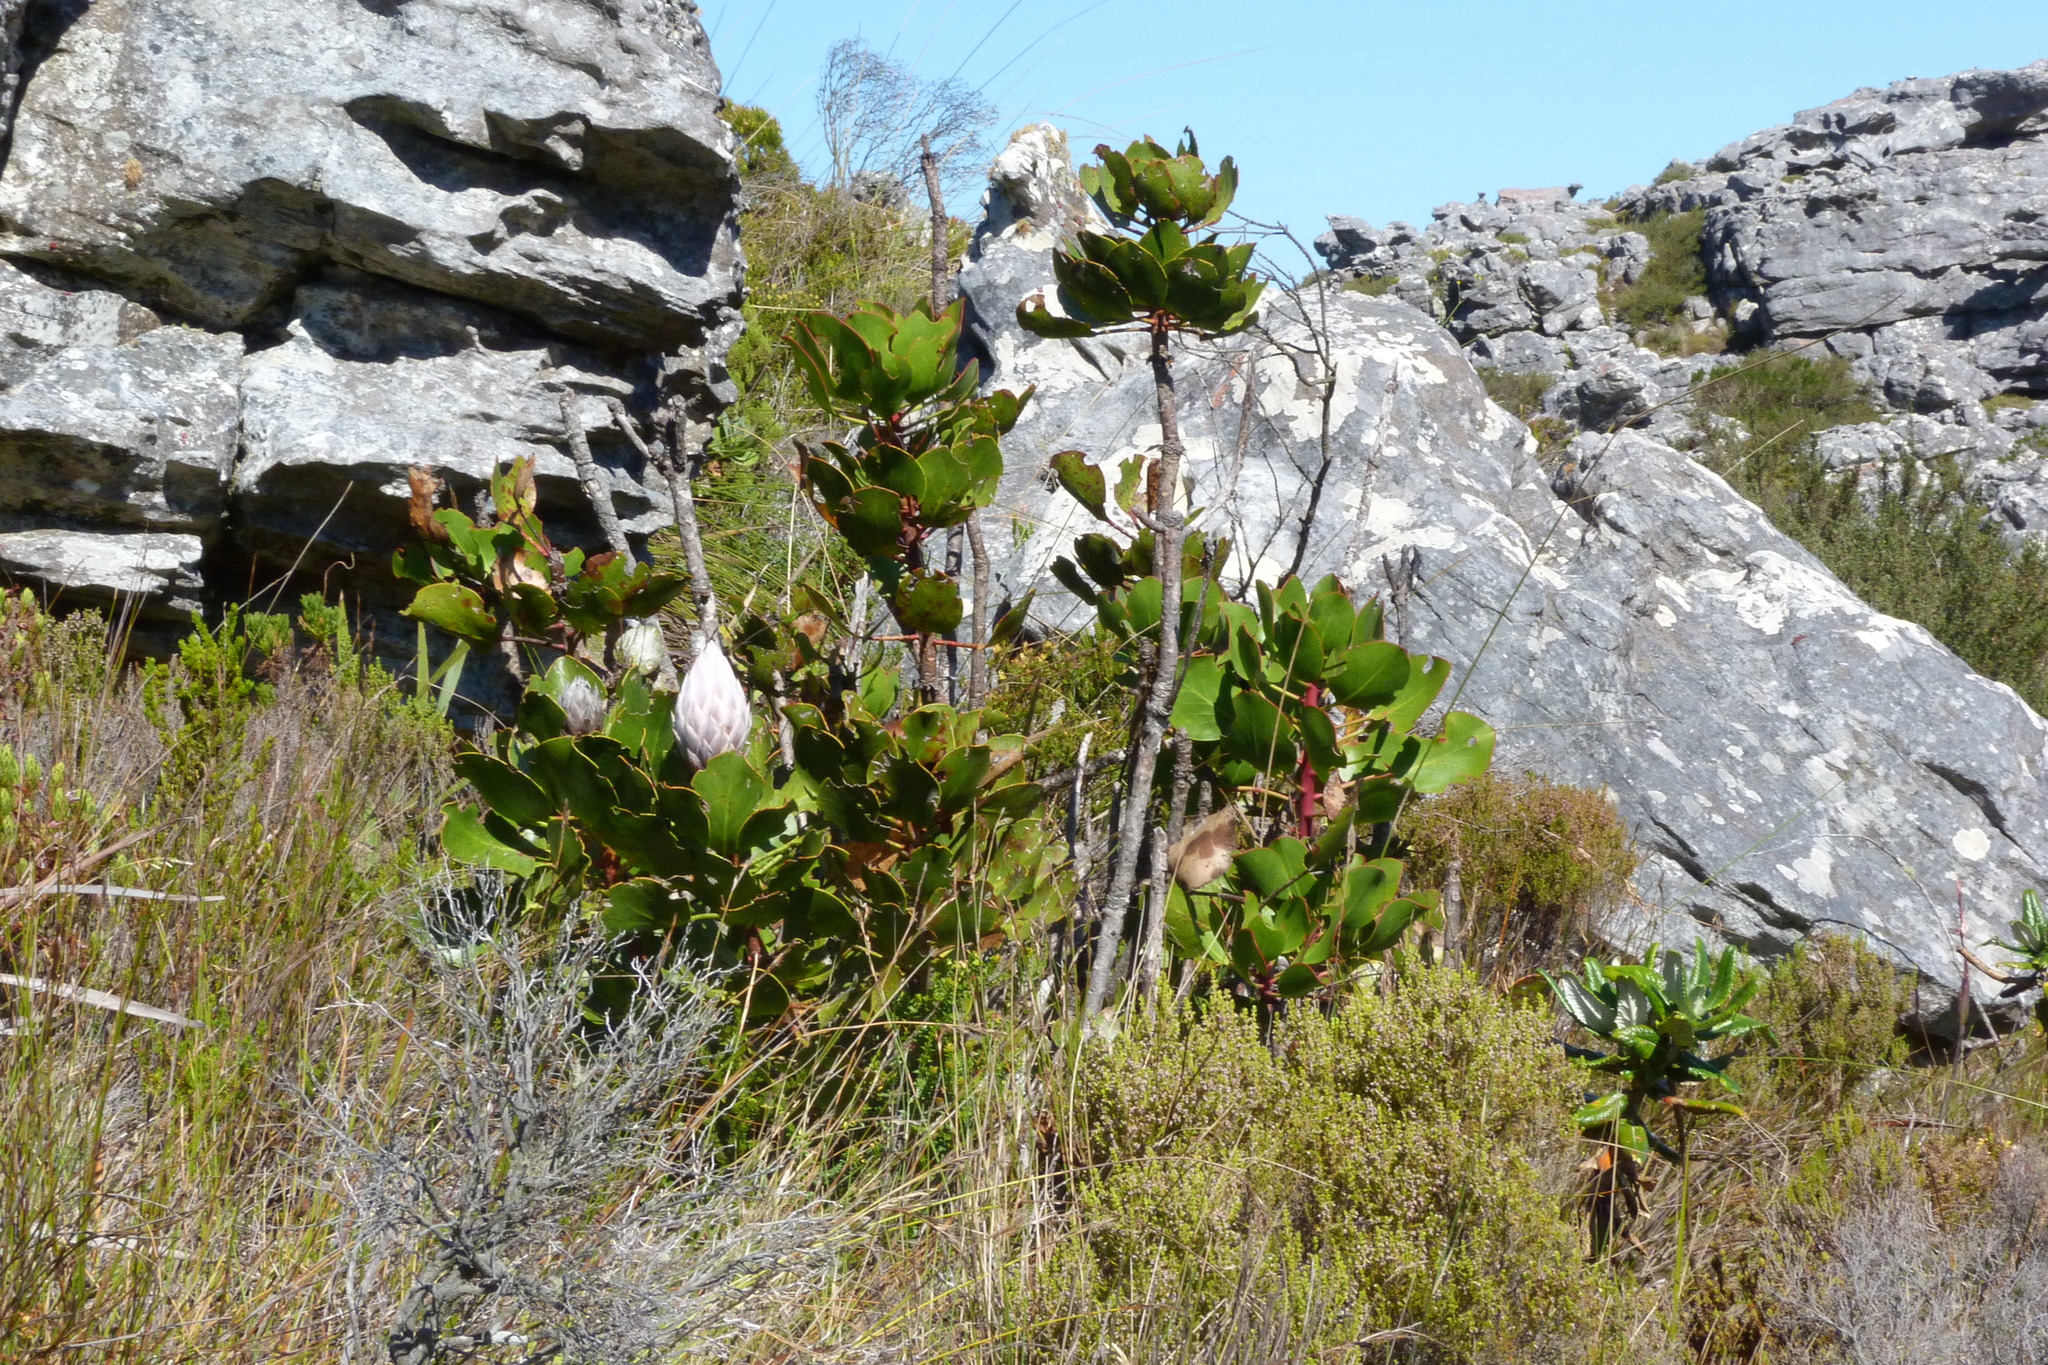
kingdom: Plantae
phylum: Tracheophyta
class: Magnoliopsida
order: Proteales
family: Proteaceae
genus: Protea
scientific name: Protea cynaroides
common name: King protea
